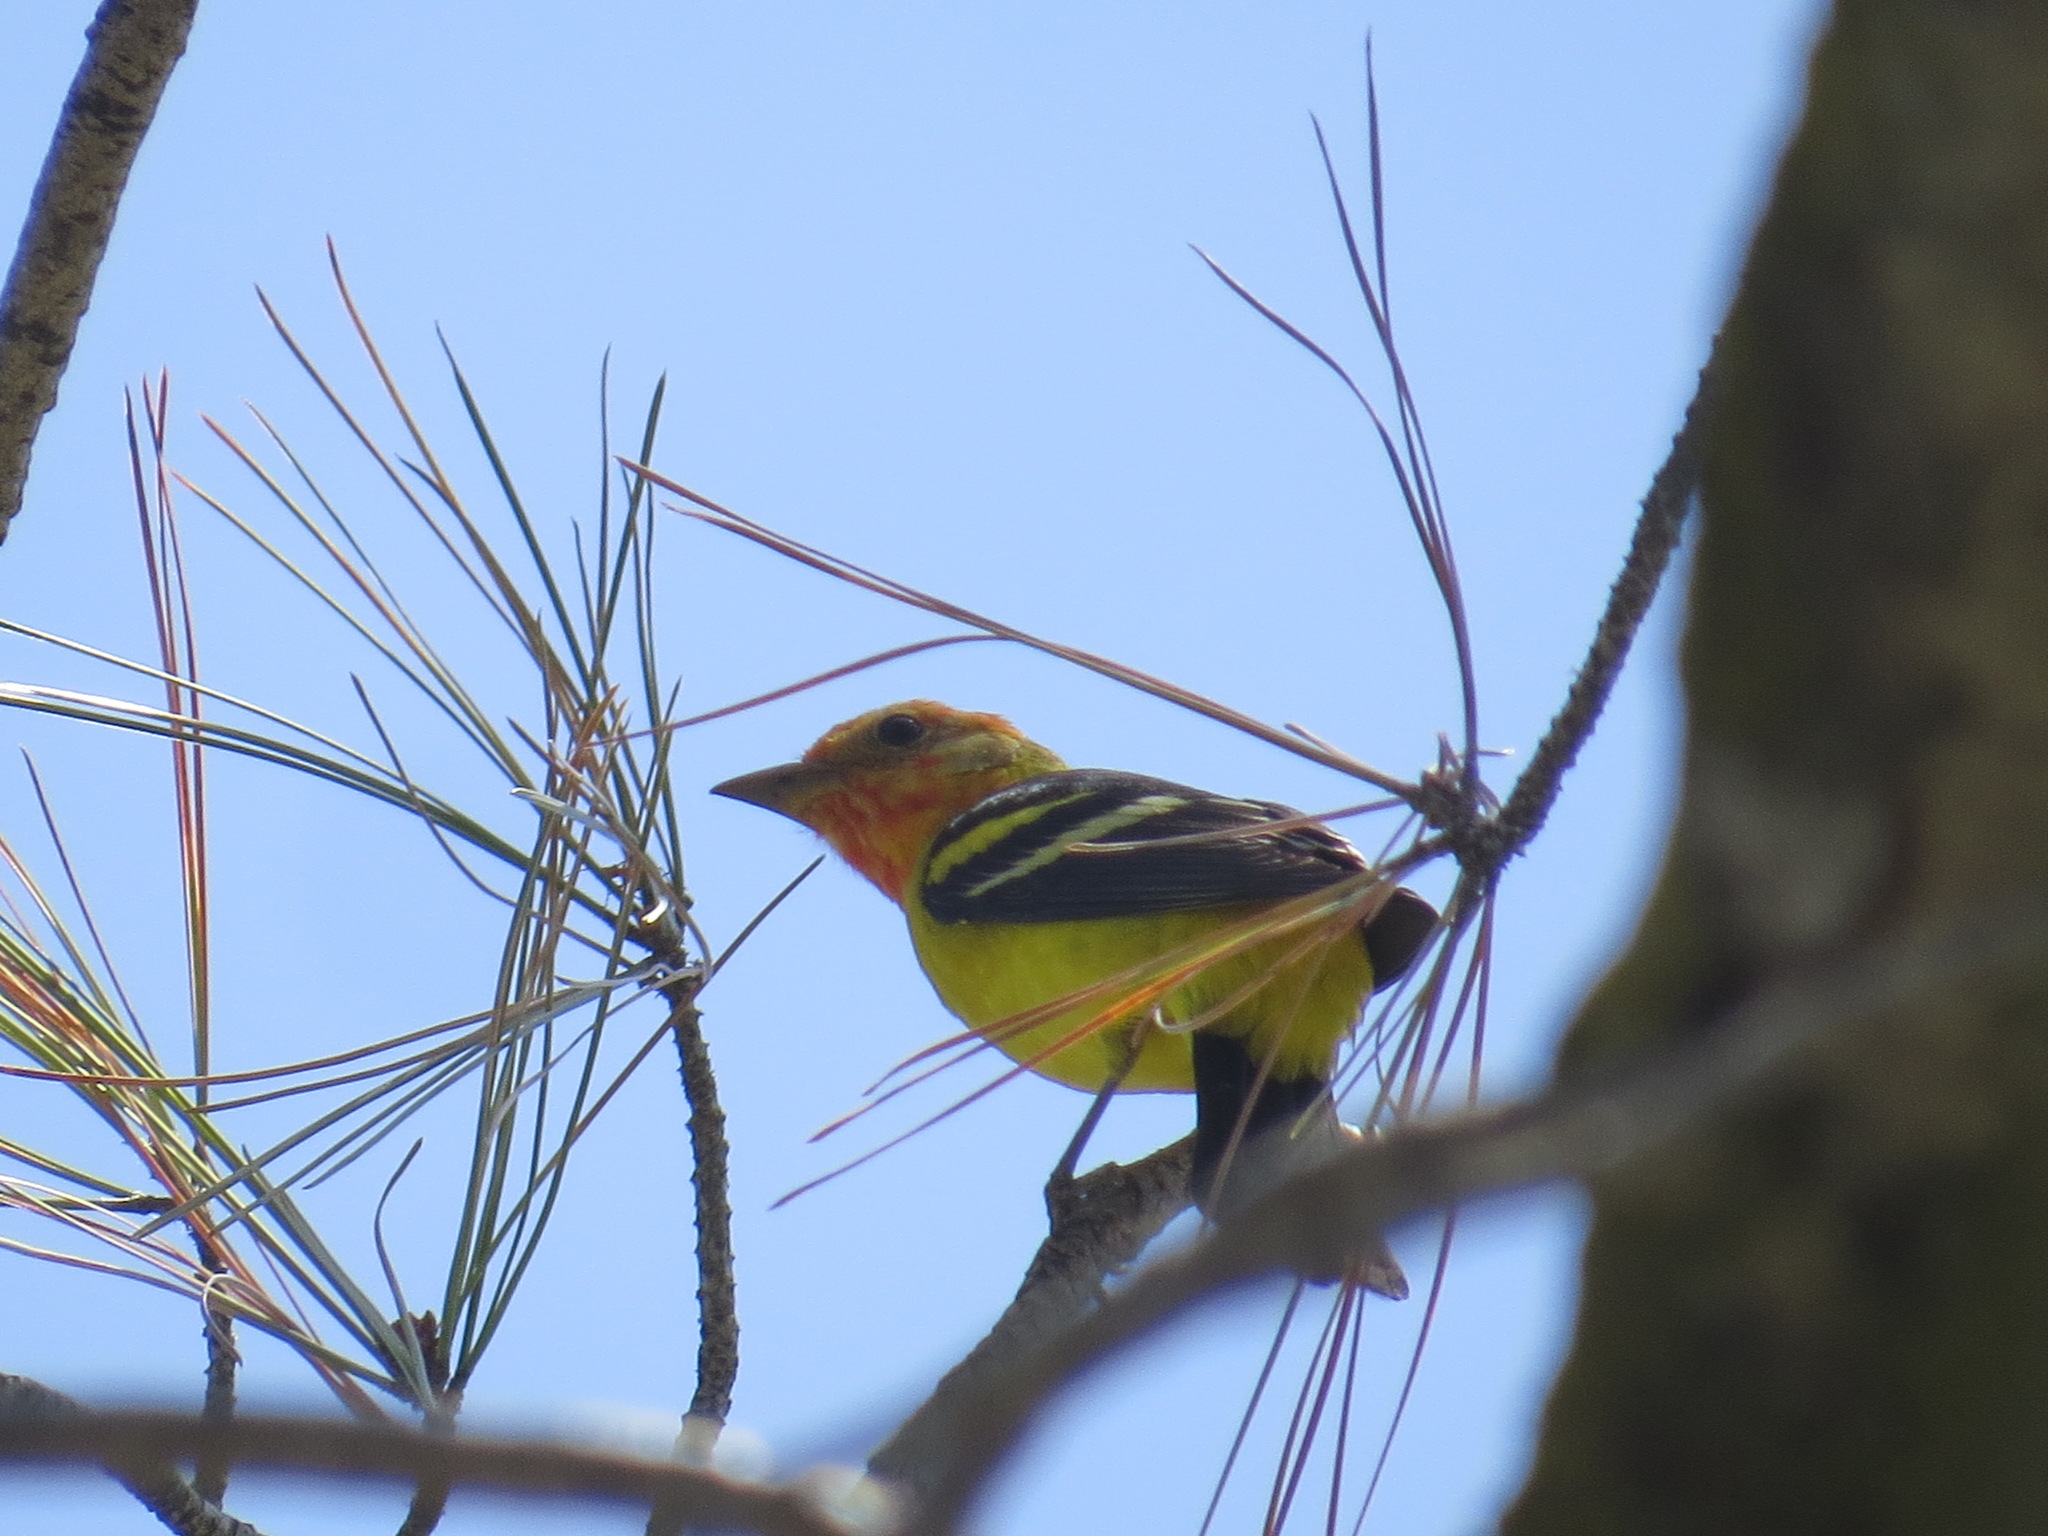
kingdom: Animalia
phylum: Chordata
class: Aves
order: Passeriformes
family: Cardinalidae
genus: Piranga
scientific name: Piranga ludoviciana
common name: Western tanager
